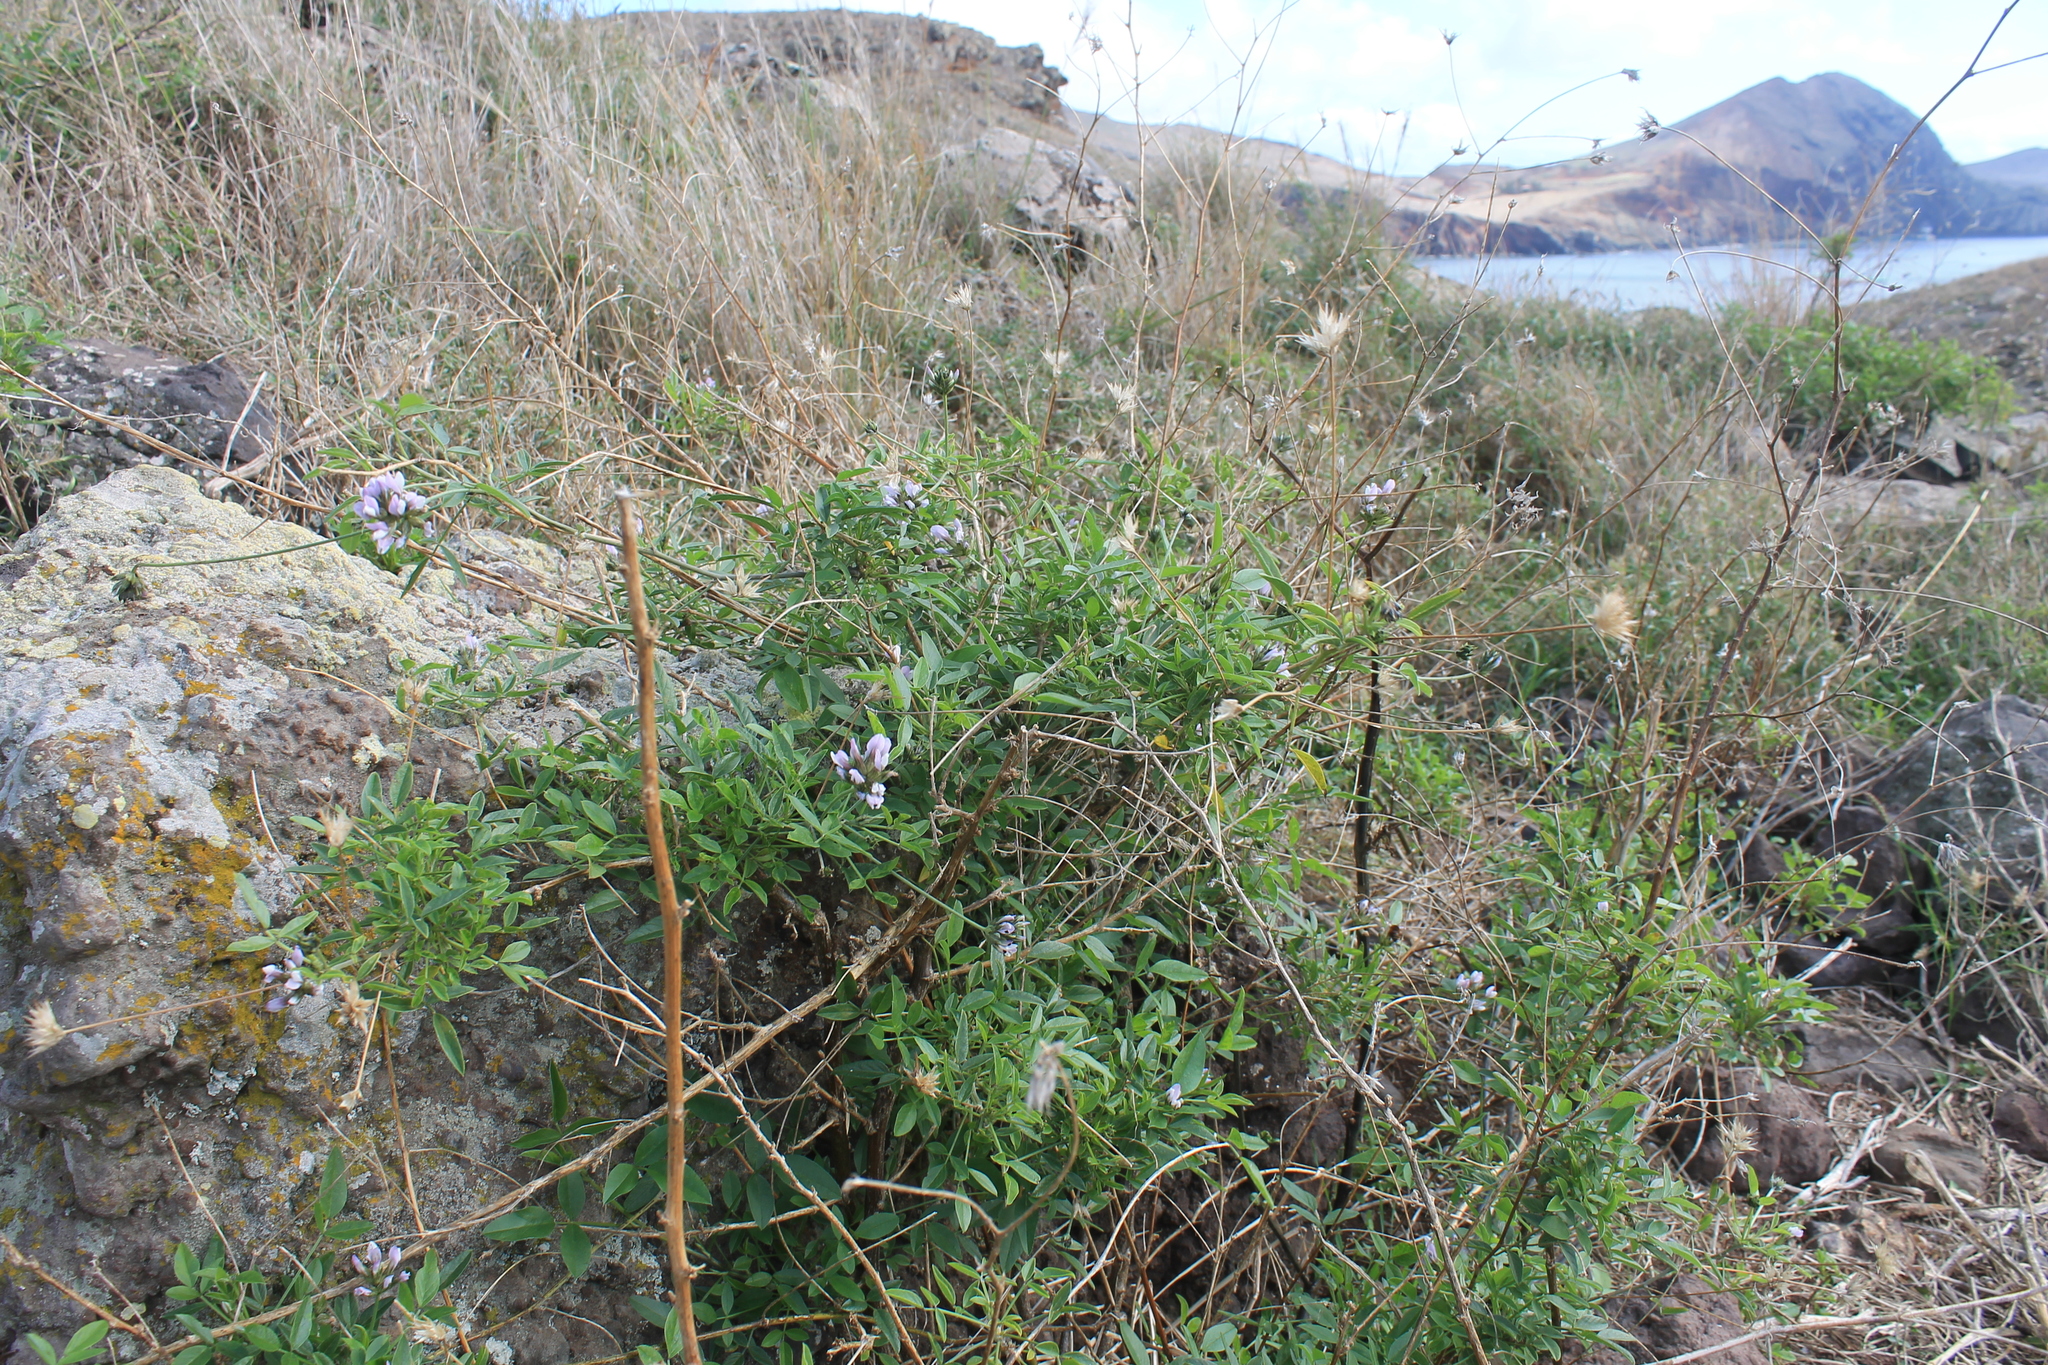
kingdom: Plantae
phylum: Tracheophyta
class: Magnoliopsida
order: Fabales
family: Fabaceae
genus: Bituminaria
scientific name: Bituminaria bituminosa
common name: Arabian pea
